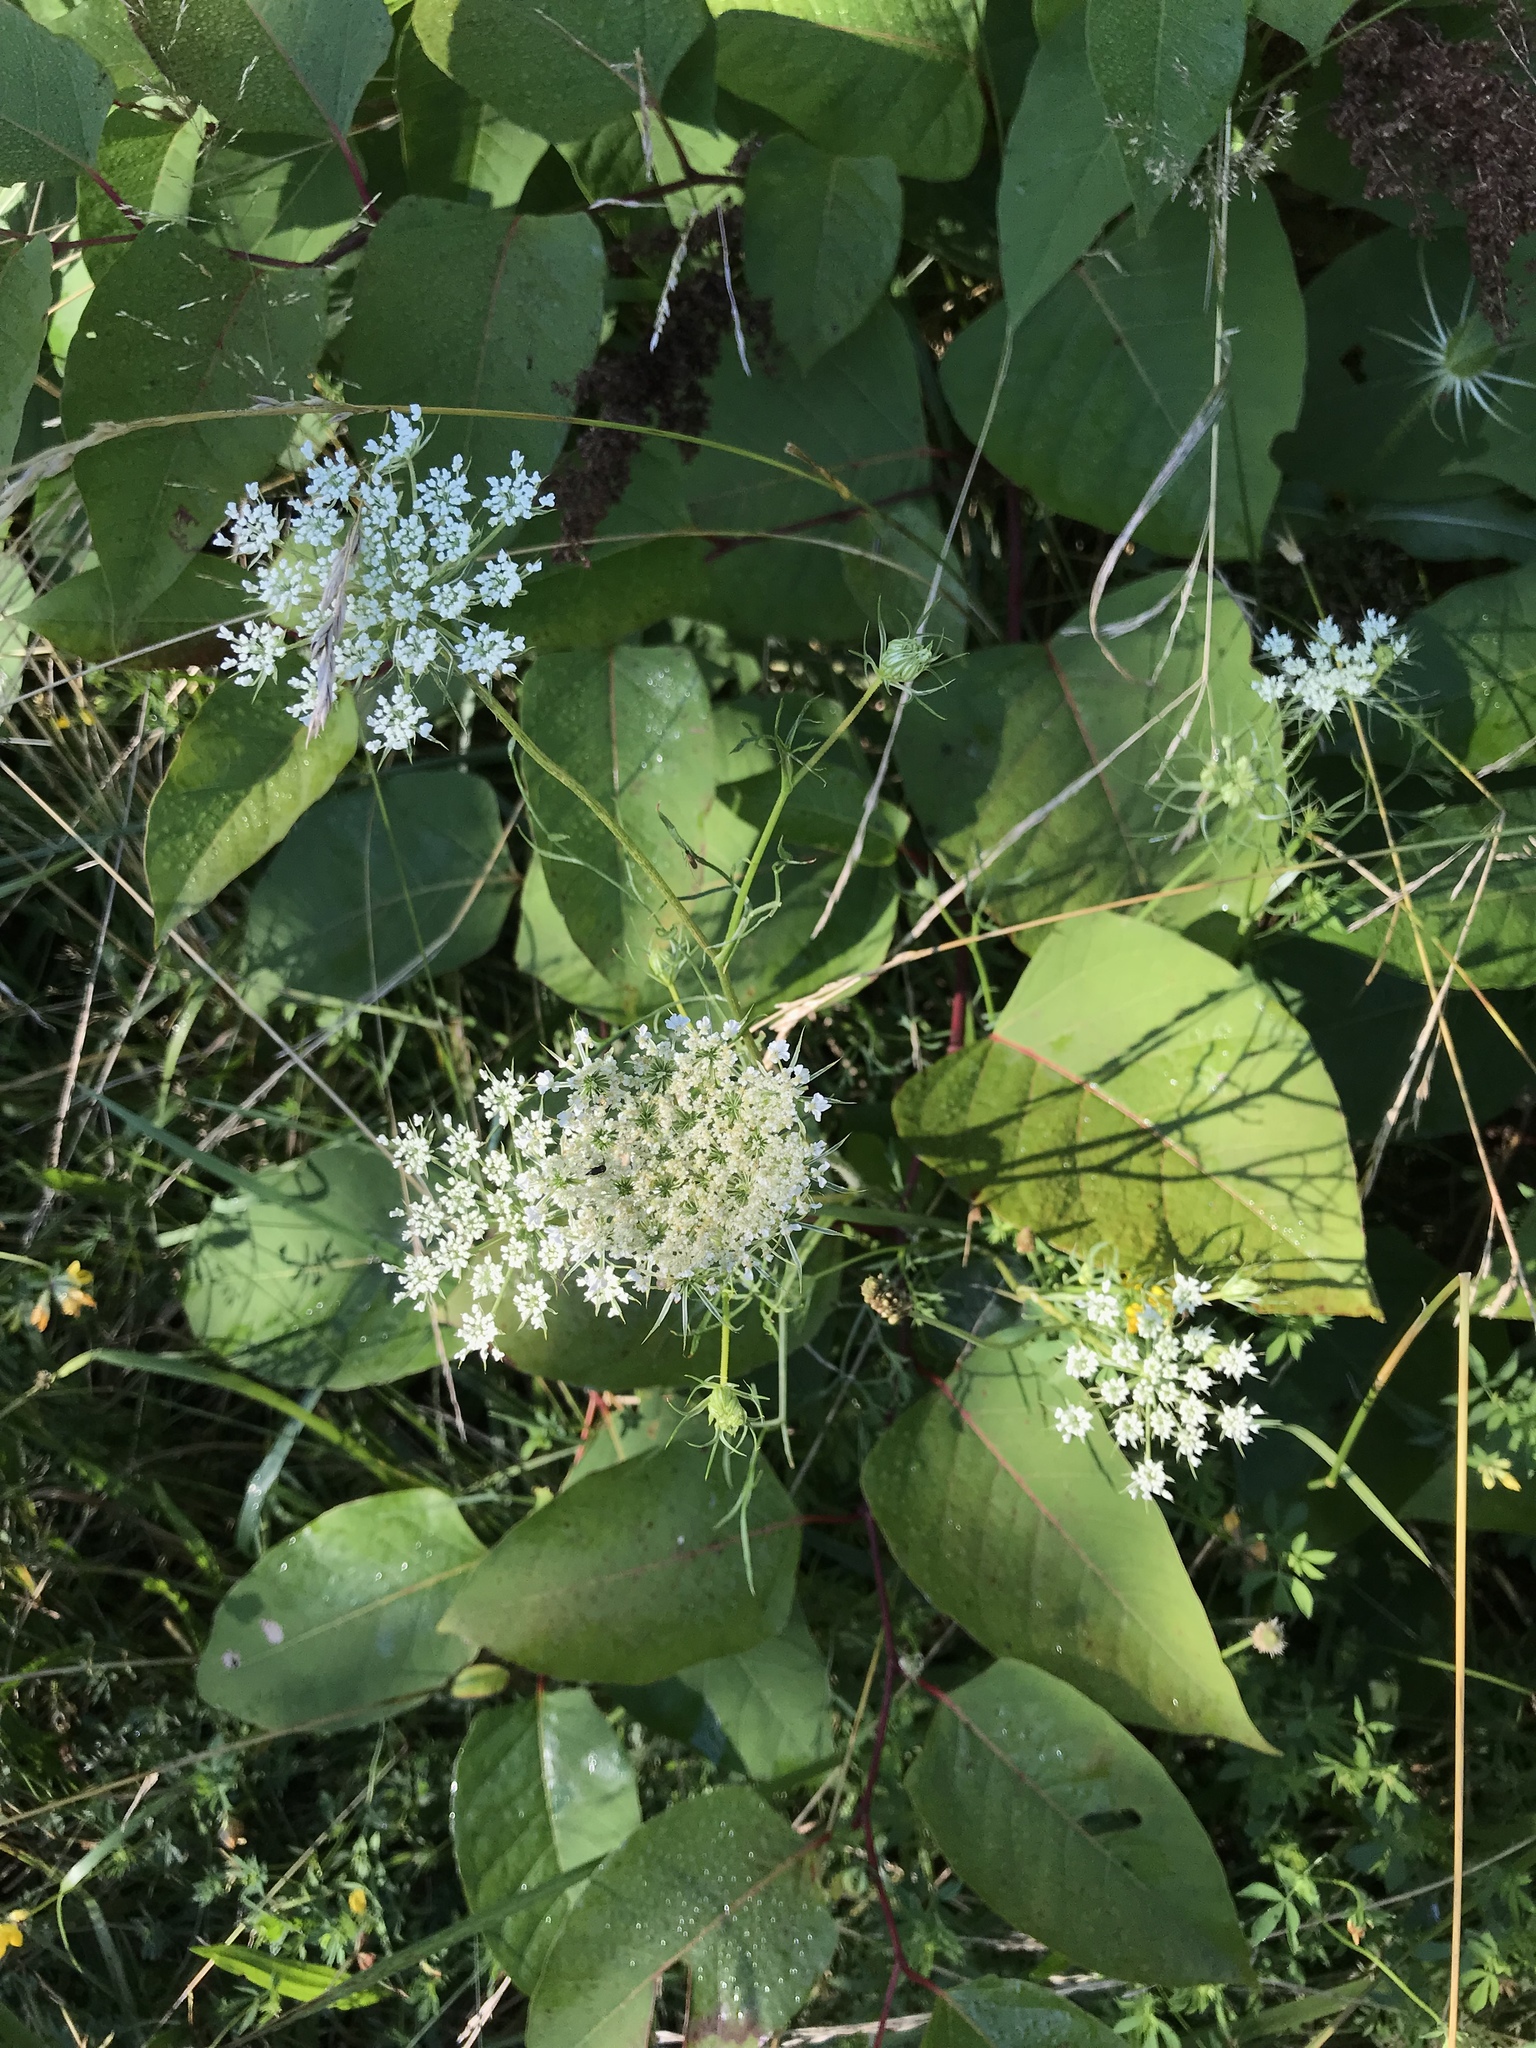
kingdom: Plantae
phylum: Tracheophyta
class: Magnoliopsida
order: Apiales
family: Apiaceae
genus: Daucus
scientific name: Daucus carota
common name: Wild carrot
